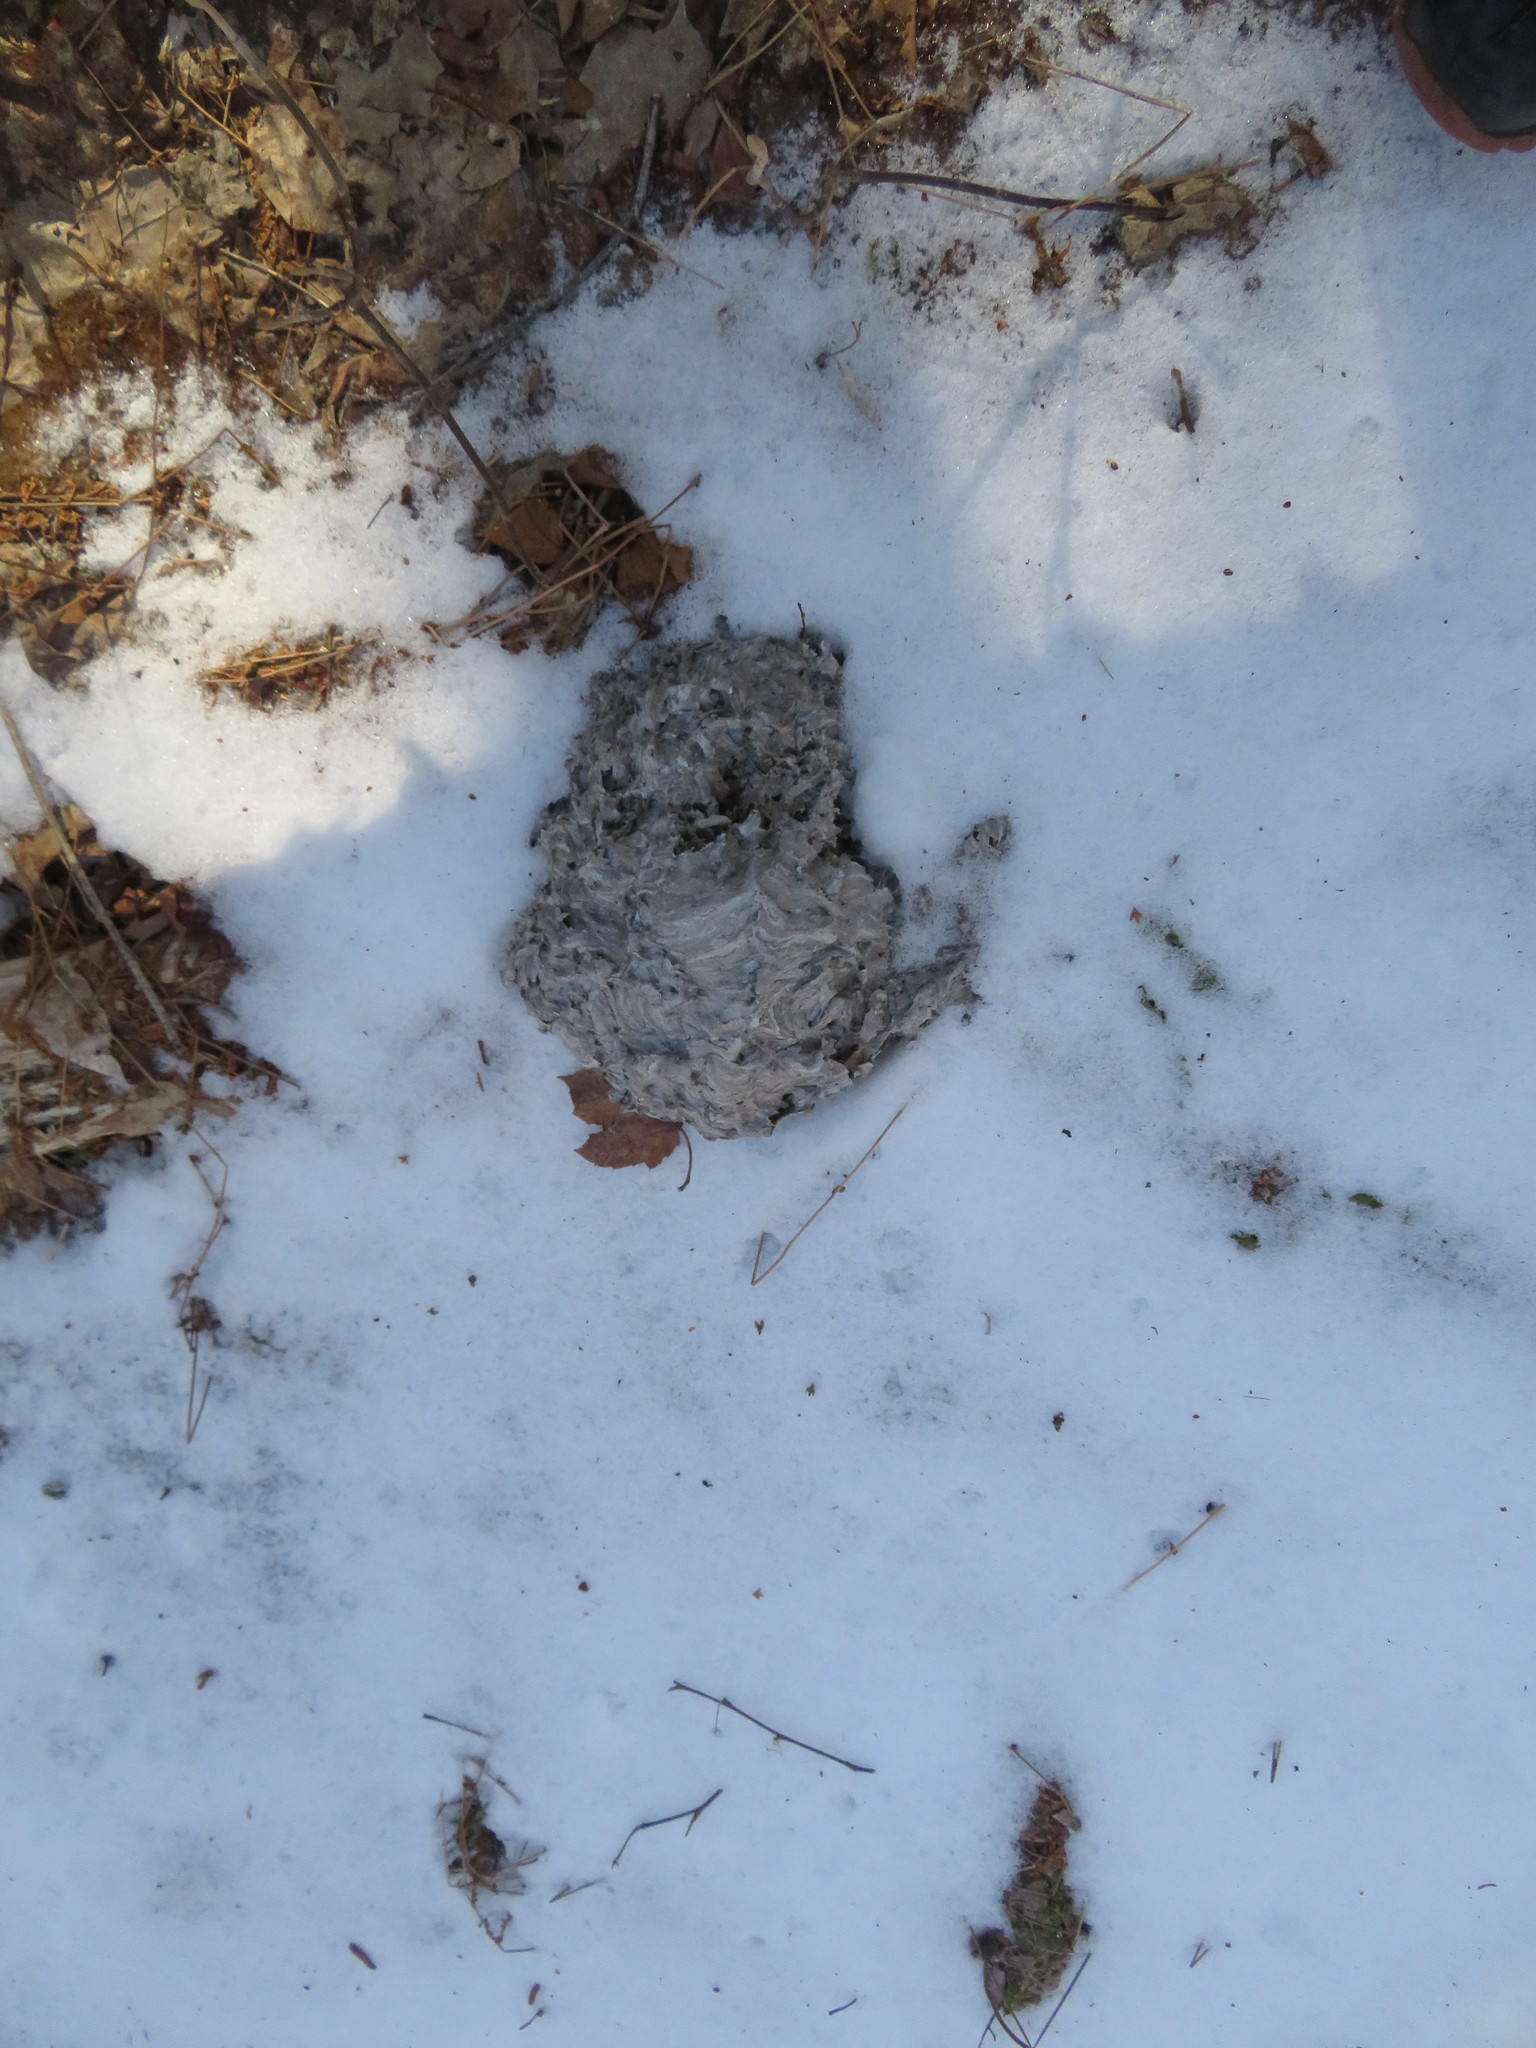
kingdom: Animalia
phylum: Arthropoda
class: Insecta
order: Hymenoptera
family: Vespidae
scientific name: Vespidae
